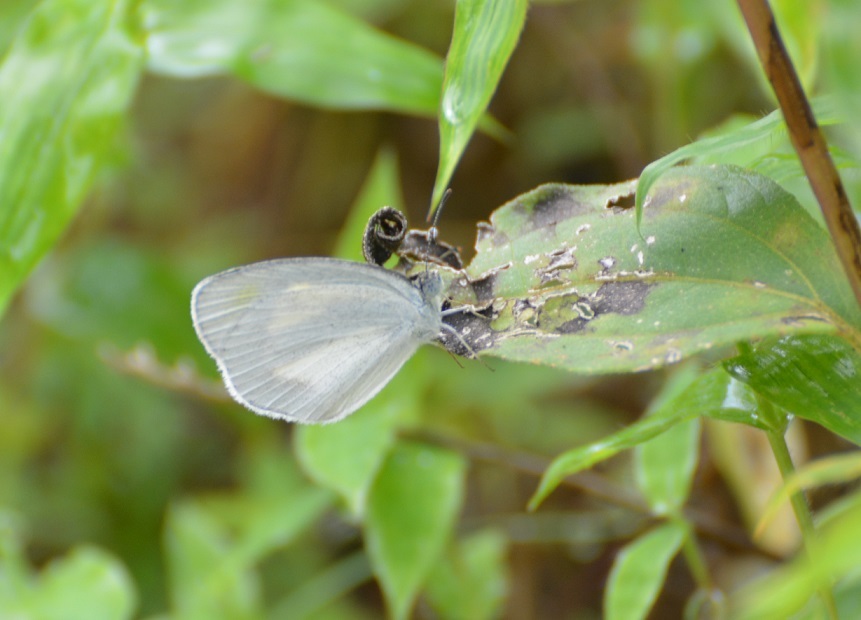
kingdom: Animalia
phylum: Arthropoda
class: Insecta
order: Lepidoptera
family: Pieridae
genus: Eurema
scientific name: Eurema daira
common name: Barred sulphur
